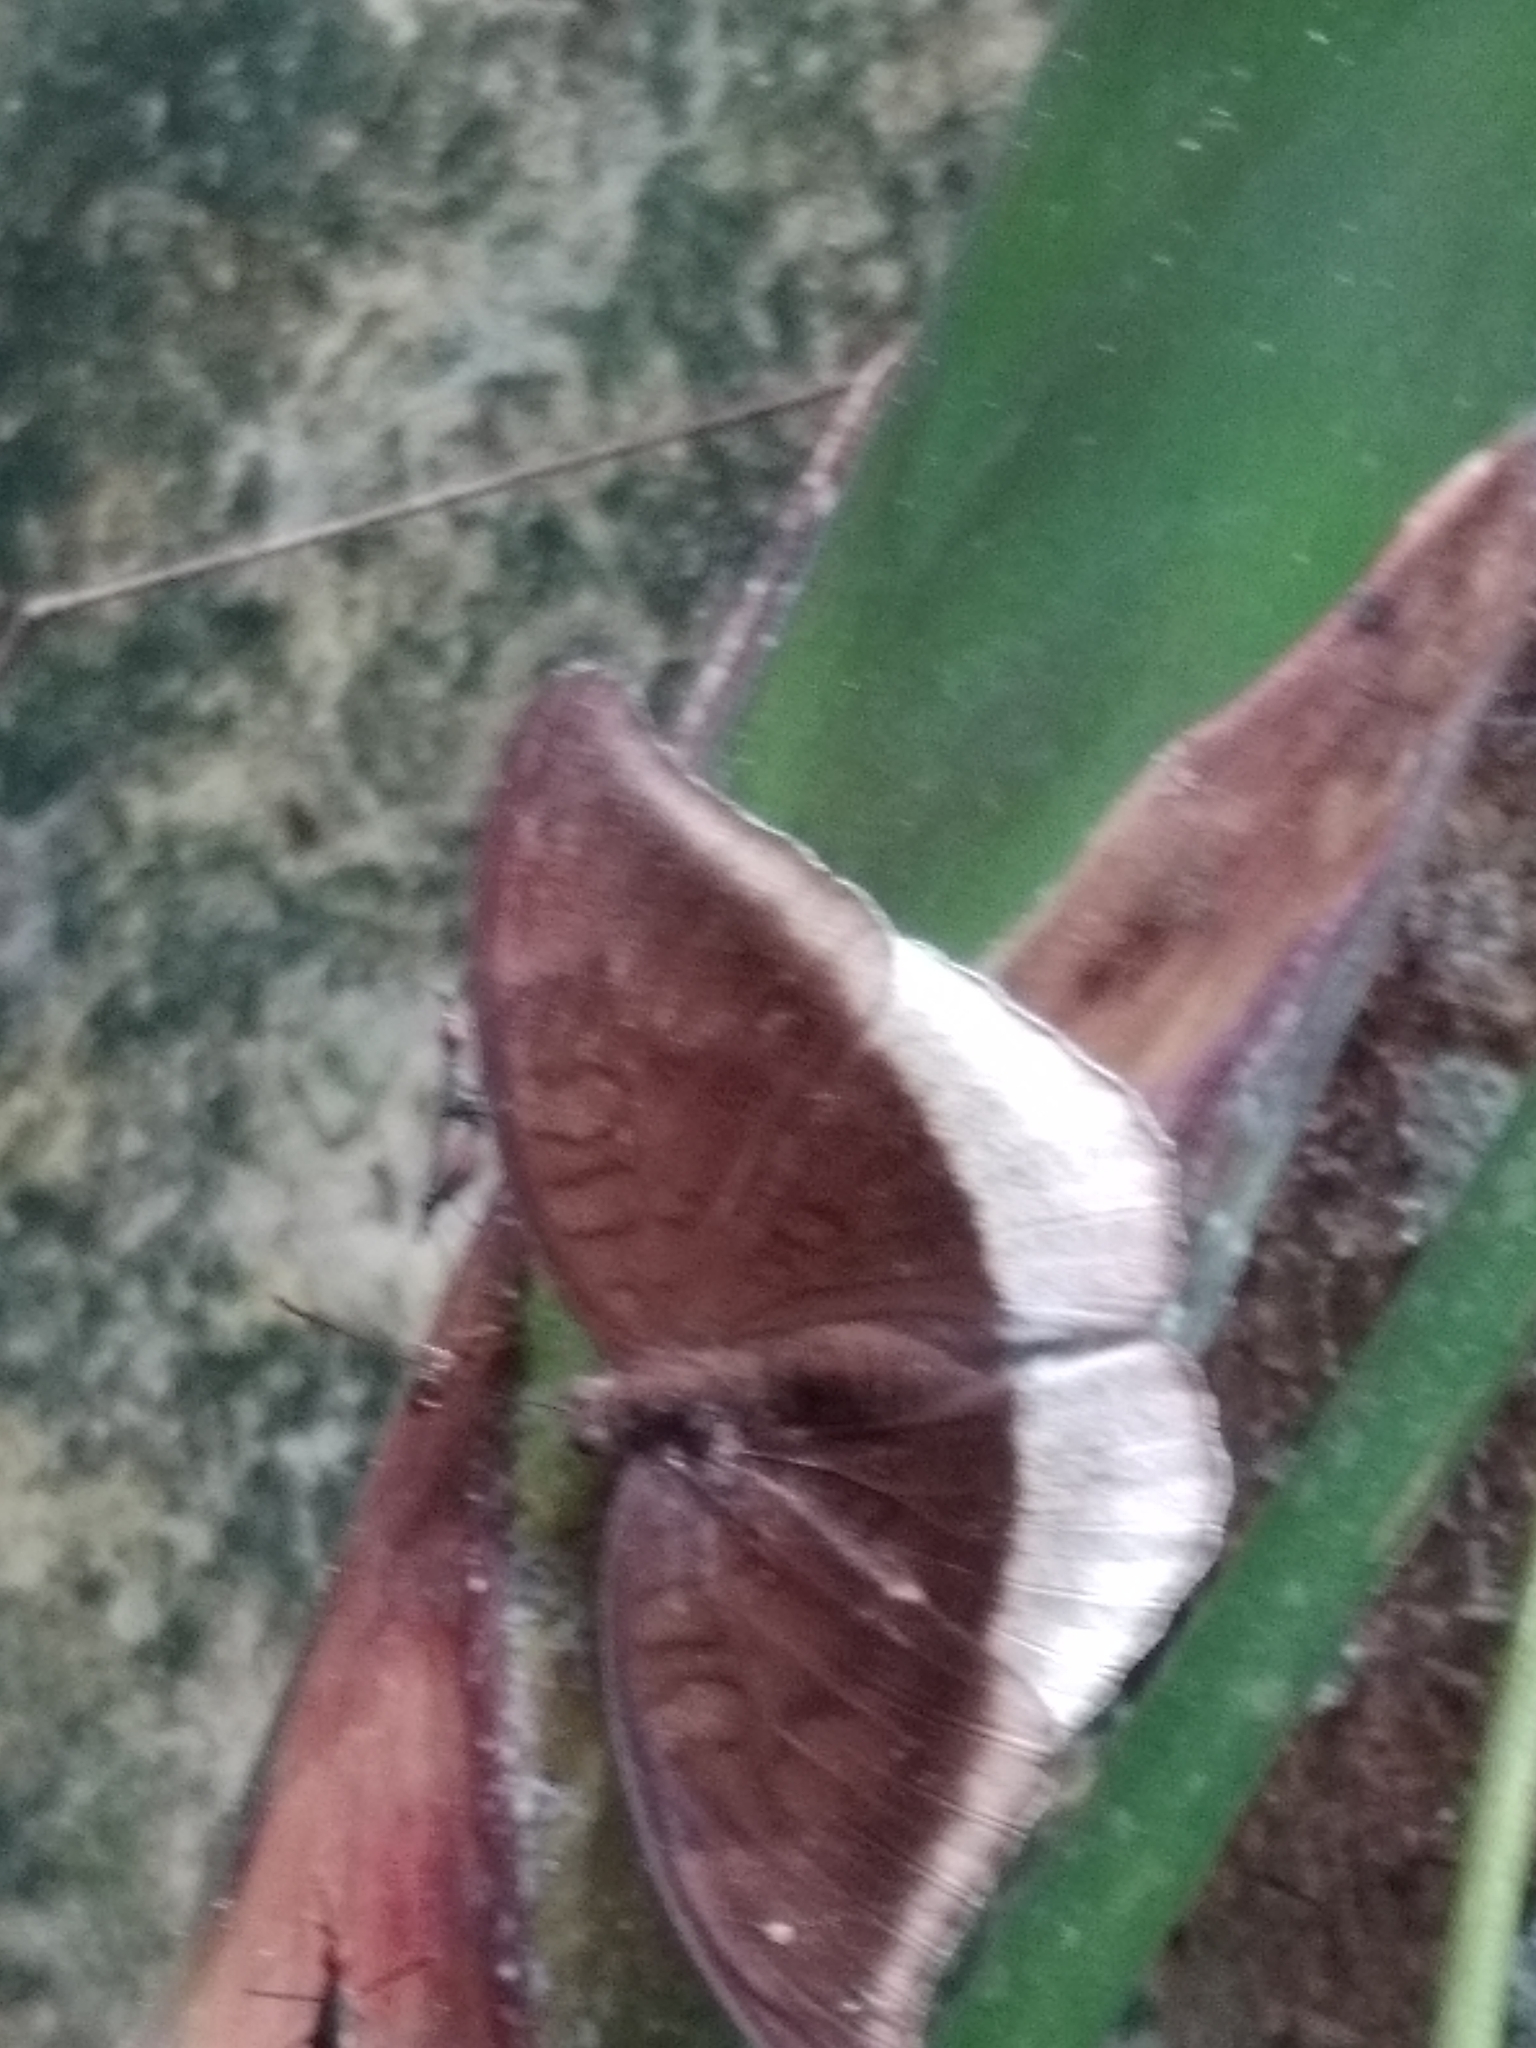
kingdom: Animalia
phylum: Arthropoda
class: Insecta
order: Lepidoptera
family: Nymphalidae
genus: Tanaecia
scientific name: Tanaecia lepidea
